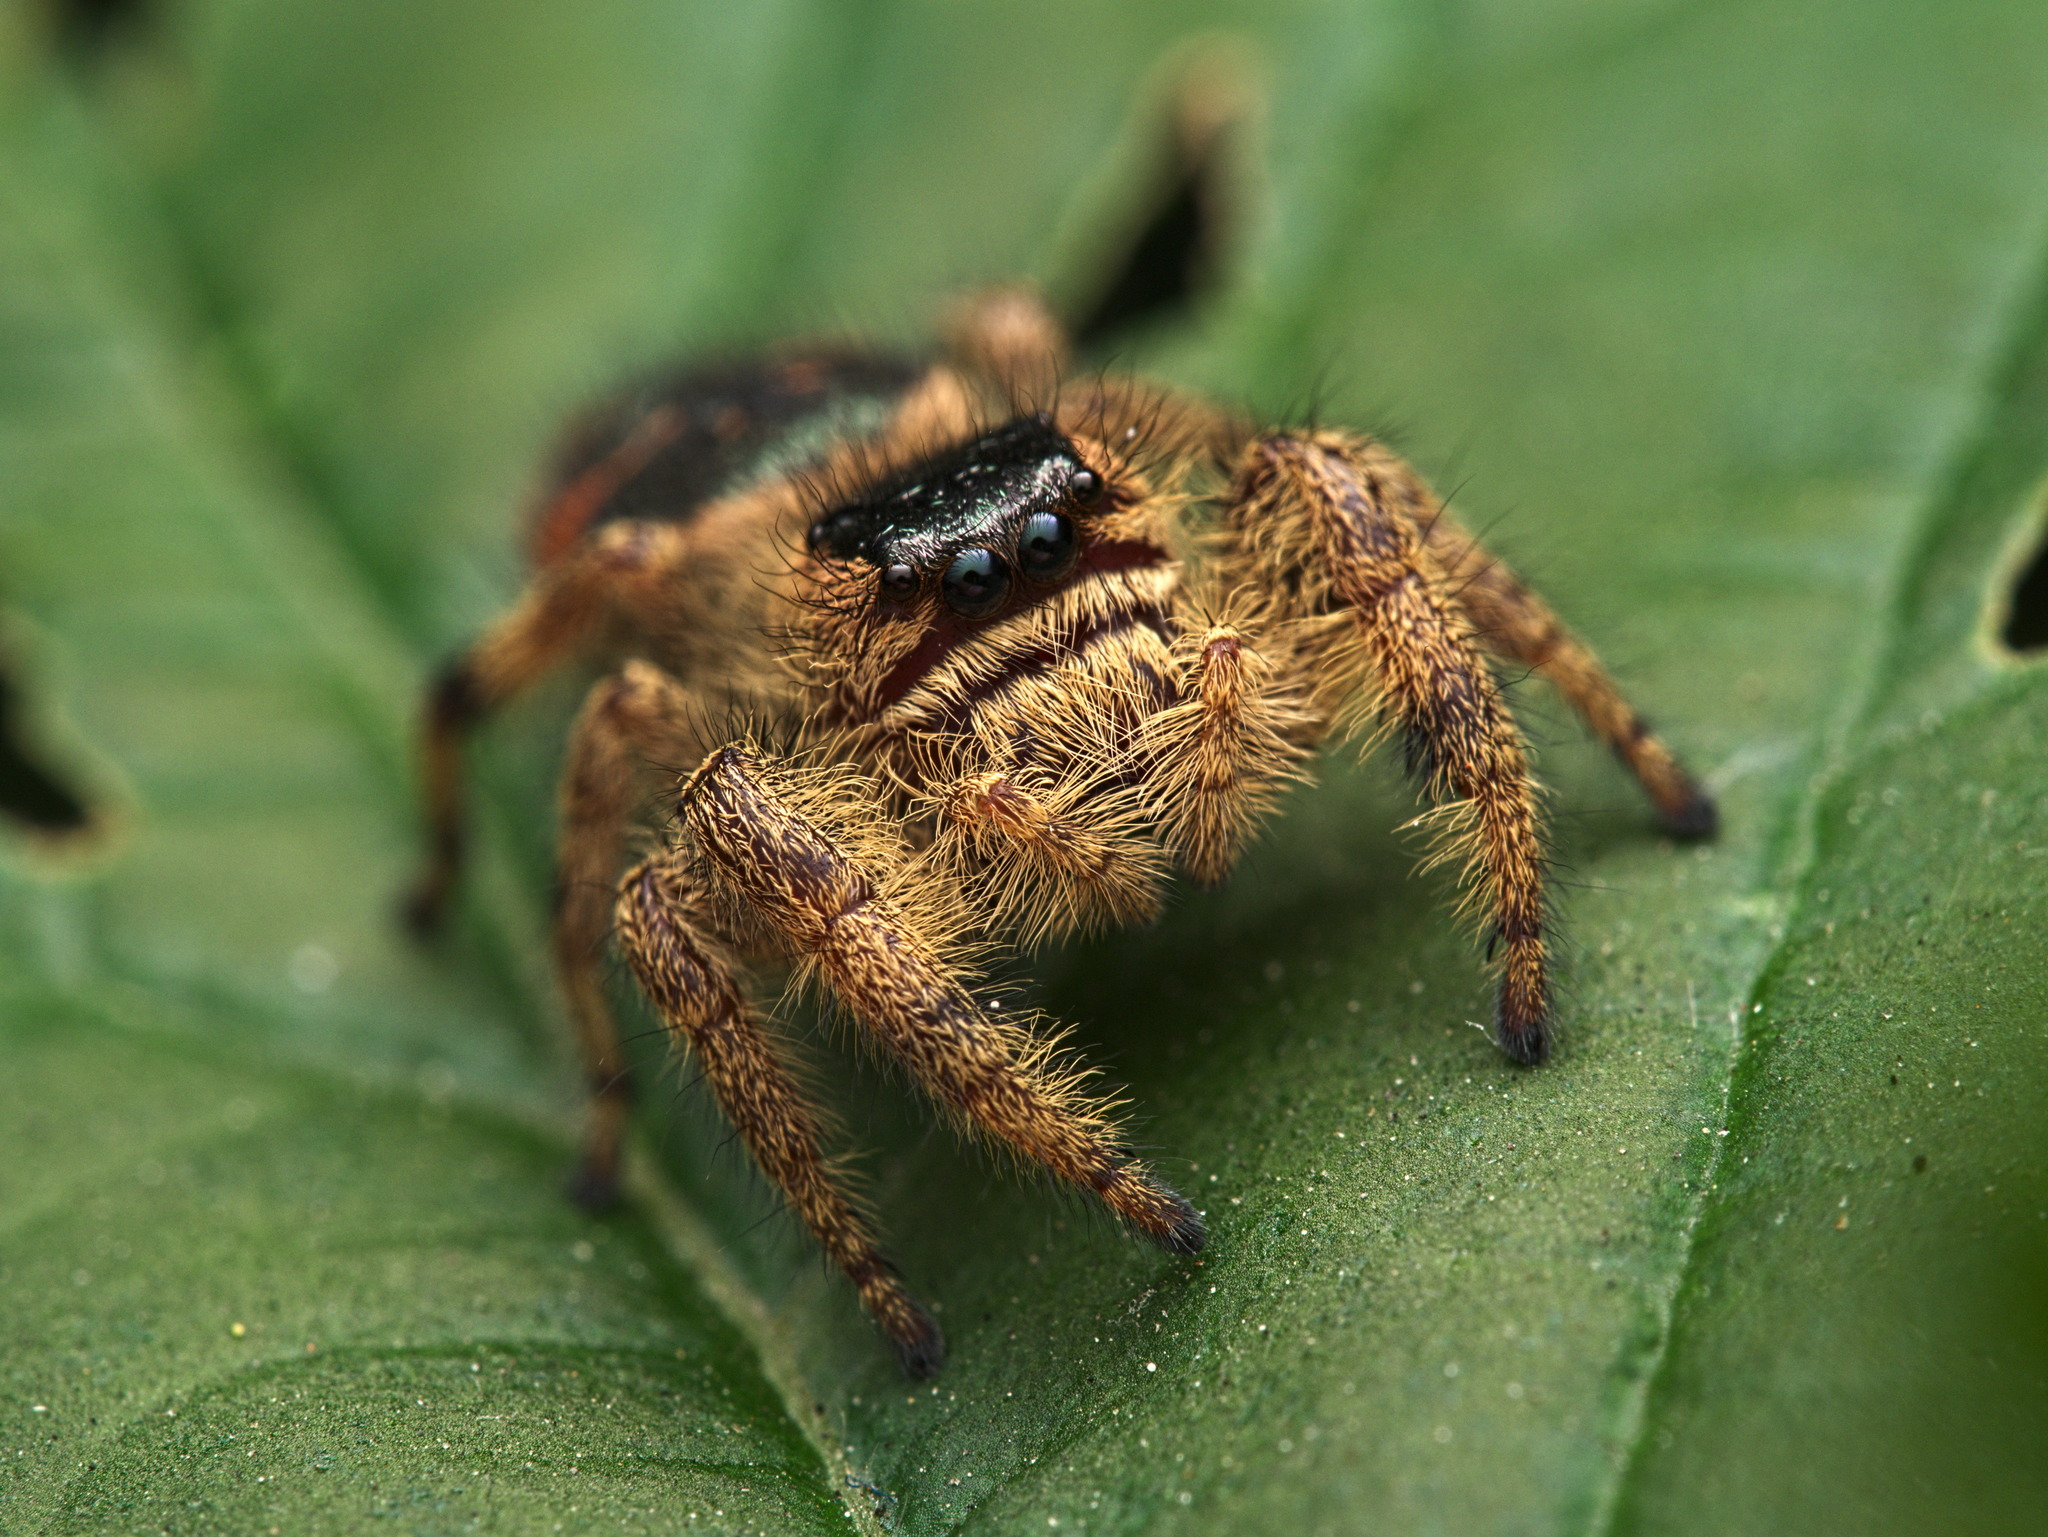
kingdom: Animalia
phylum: Arthropoda
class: Arachnida
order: Araneae
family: Salticidae
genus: Paraphidippus
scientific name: Paraphidippus
